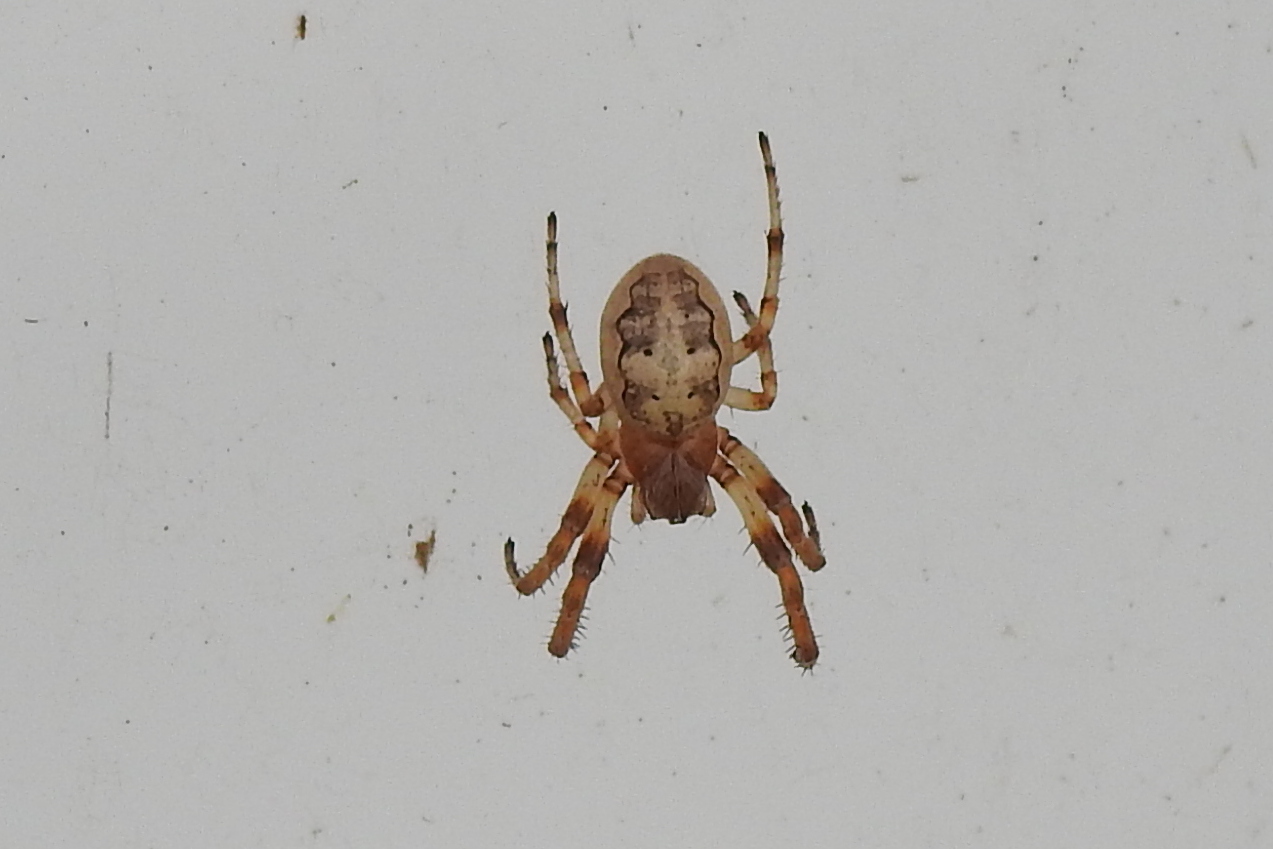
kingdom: Animalia
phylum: Arthropoda
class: Arachnida
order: Araneae
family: Araneidae
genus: Larinioides
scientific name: Larinioides cornutus
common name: Furrow orbweaver
